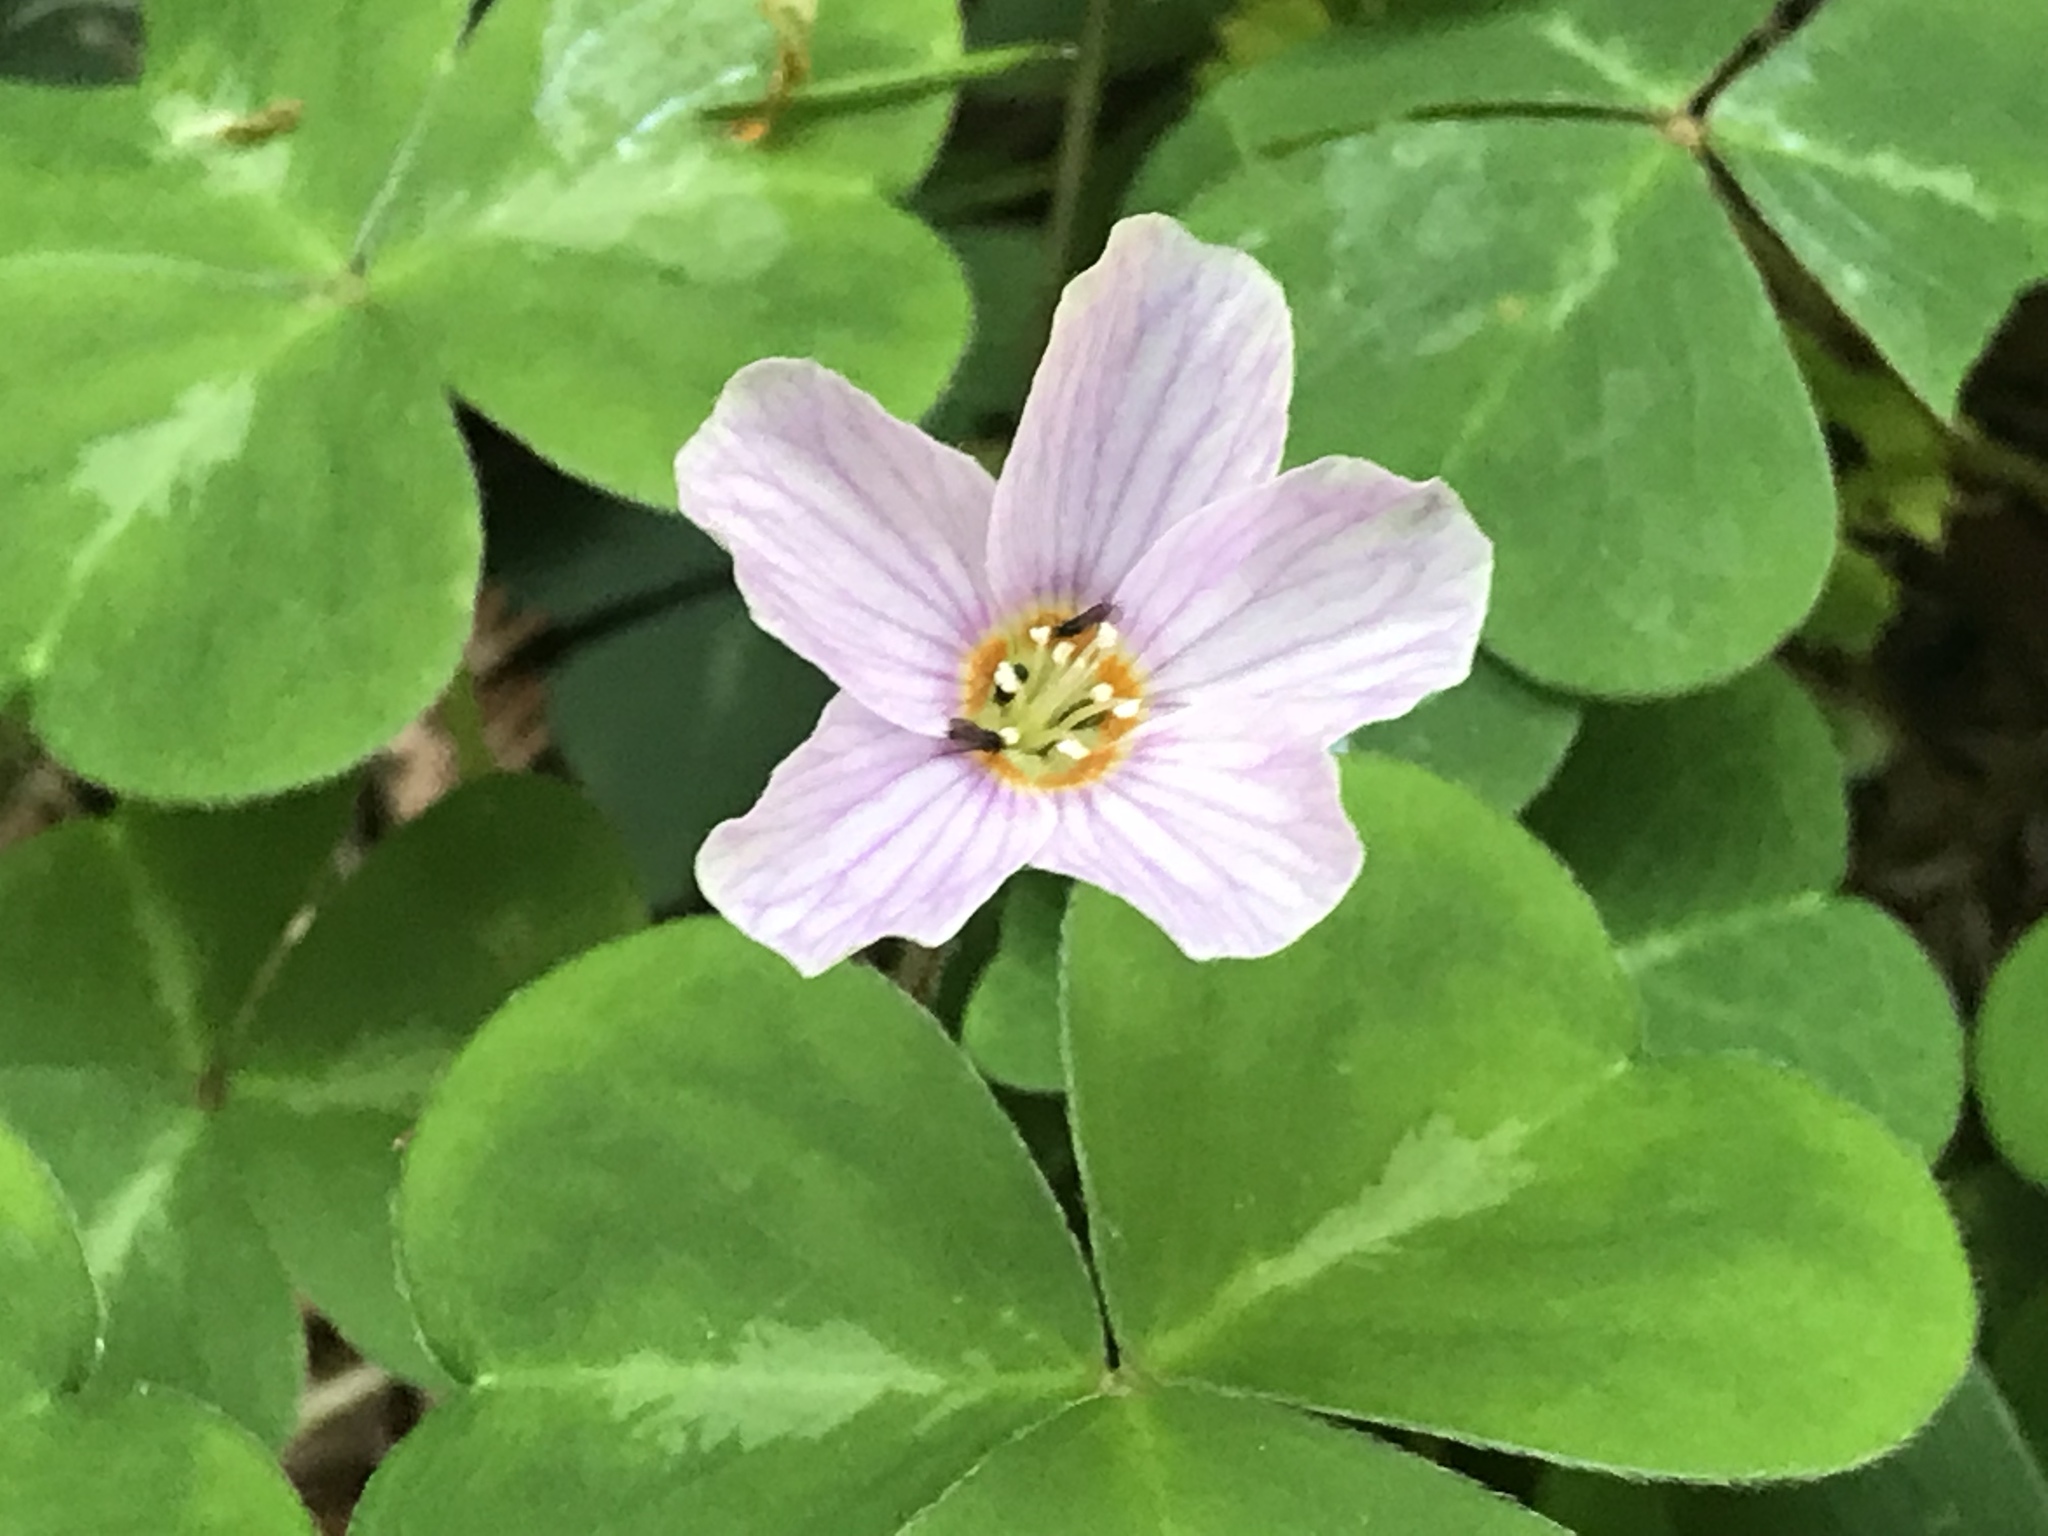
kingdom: Plantae
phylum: Tracheophyta
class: Magnoliopsida
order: Oxalidales
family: Oxalidaceae
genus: Oxalis
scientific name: Oxalis oregana
